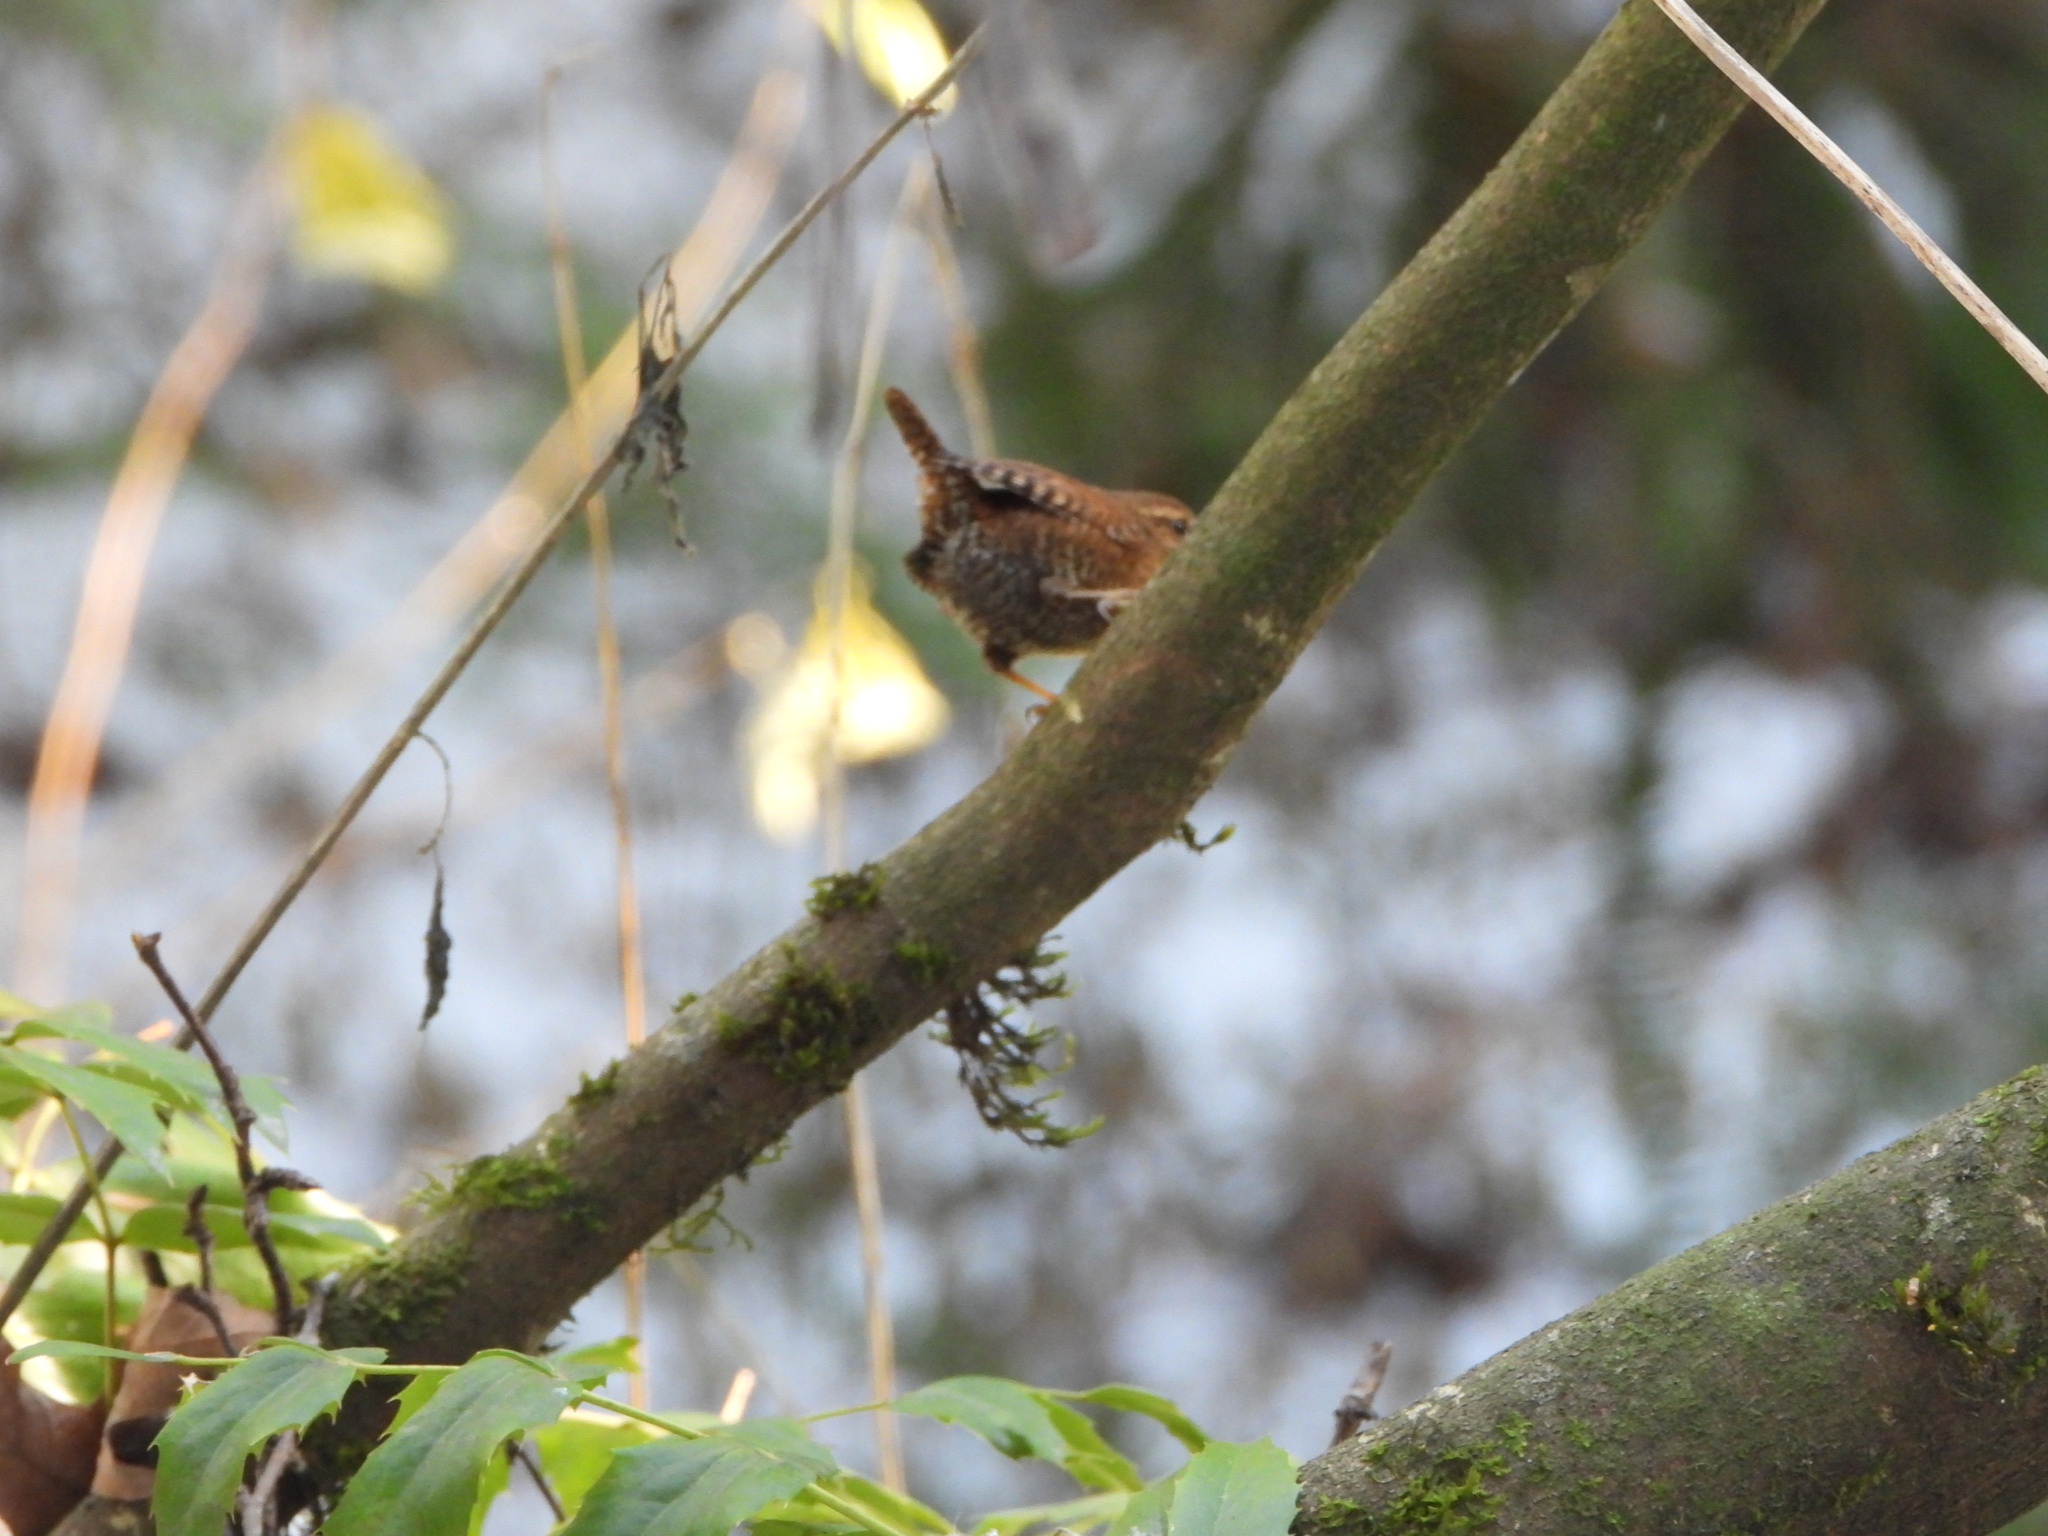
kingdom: Animalia
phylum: Chordata
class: Aves
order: Passeriformes
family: Troglodytidae
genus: Troglodytes
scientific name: Troglodytes pacificus
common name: Pacific wren
